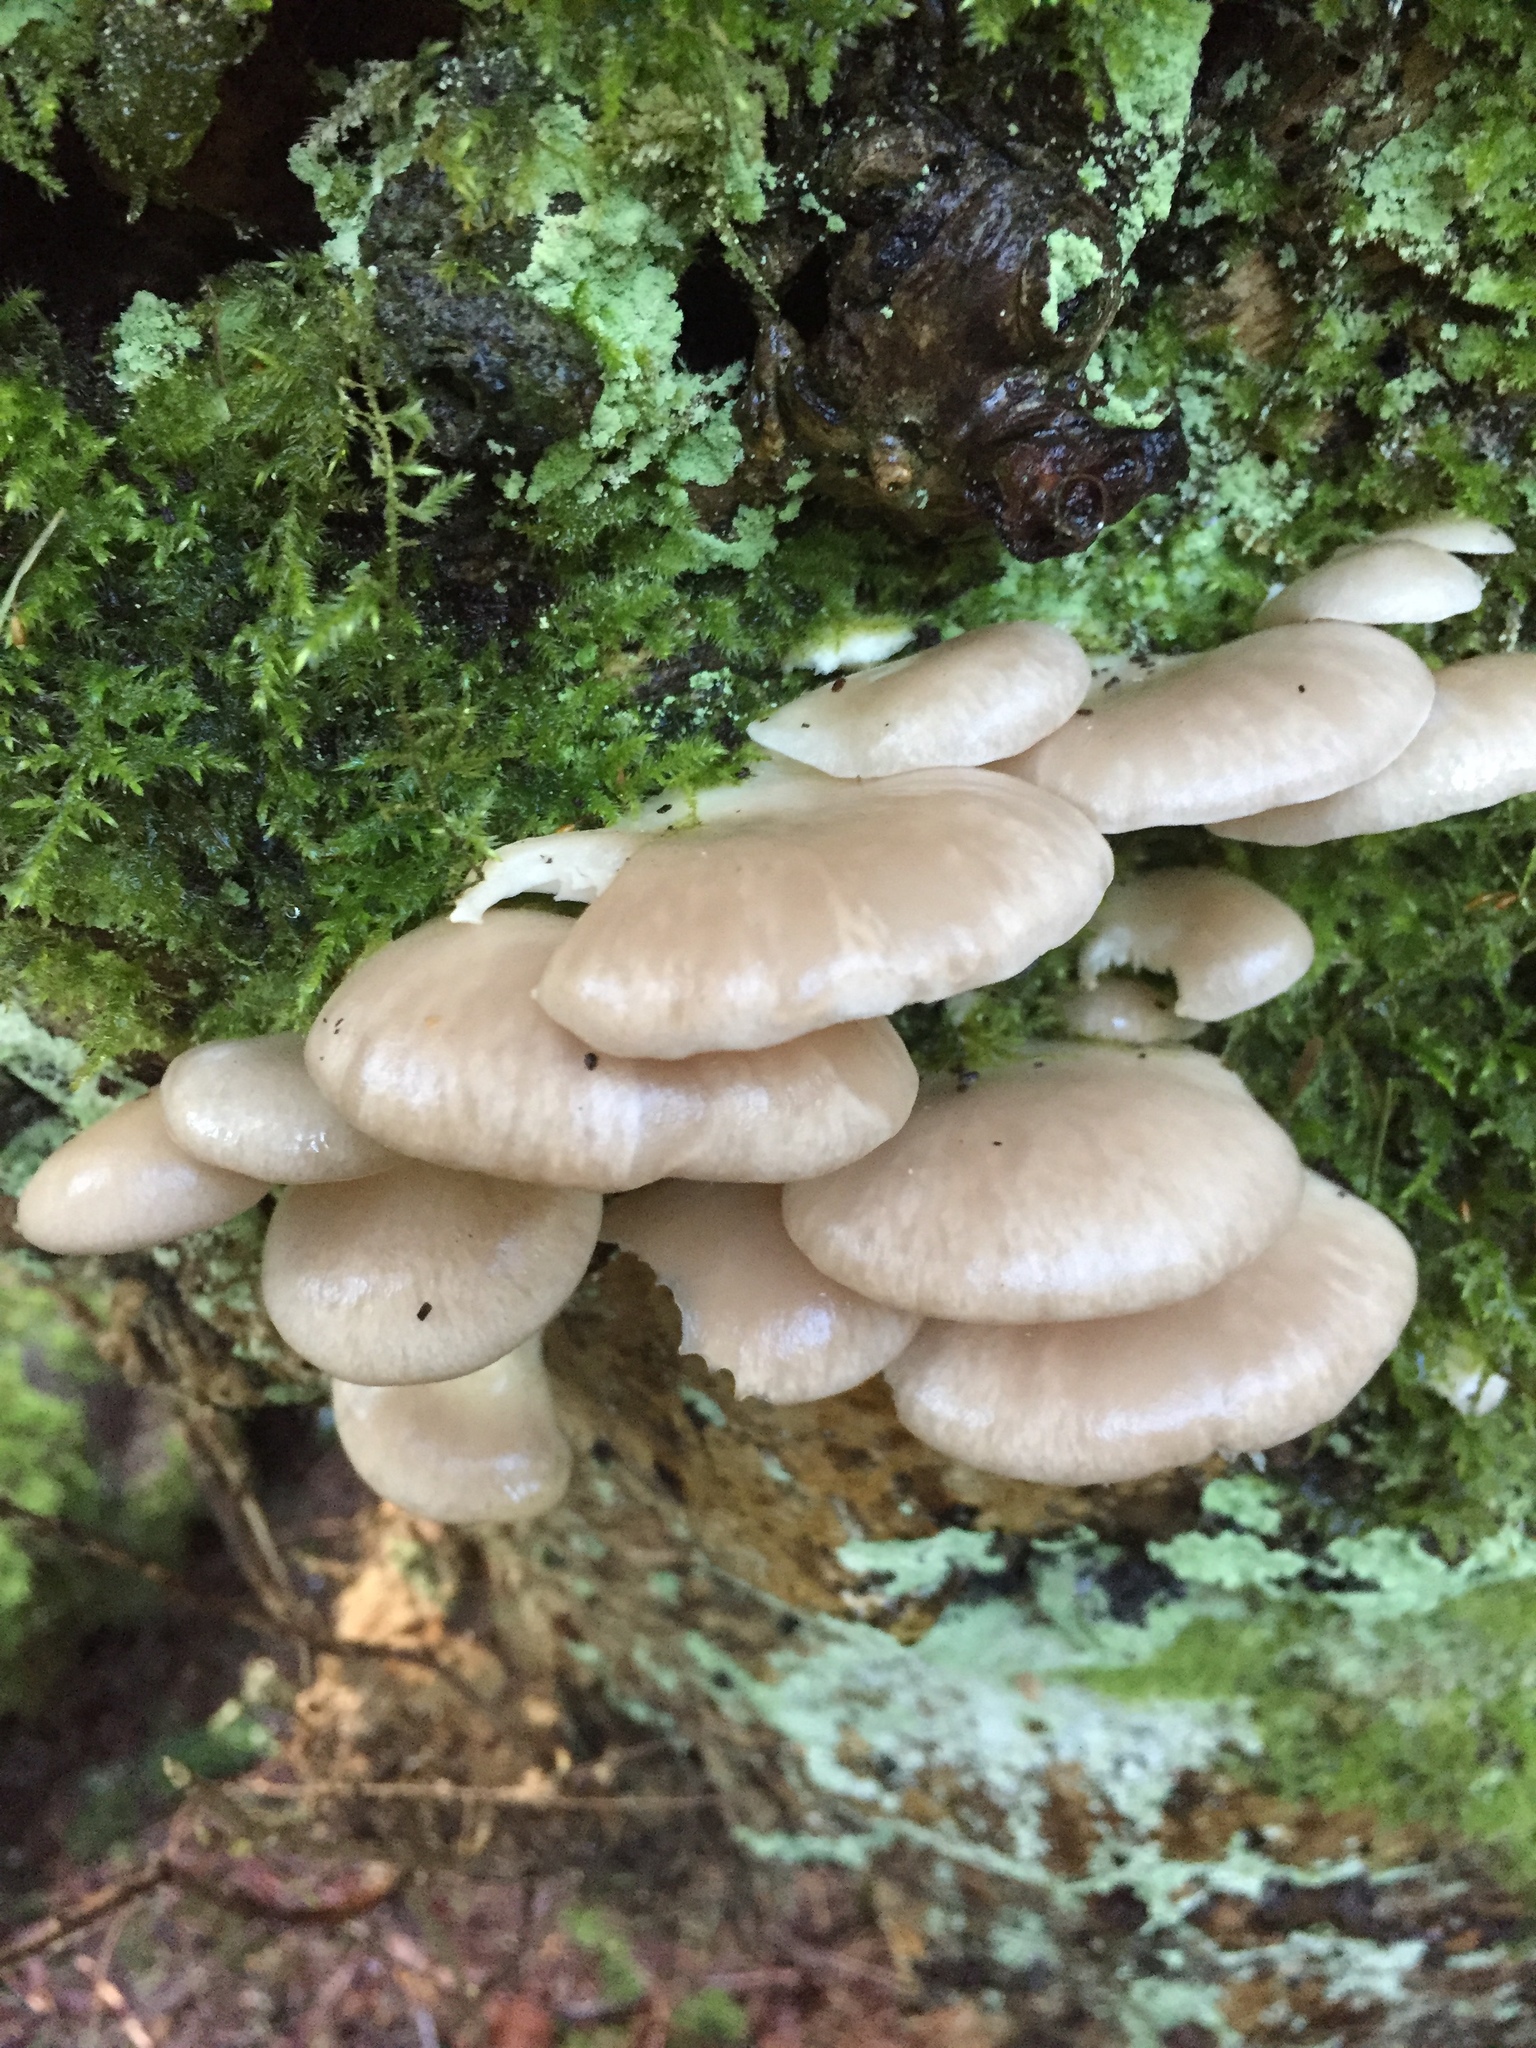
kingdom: Fungi
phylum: Basidiomycota
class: Agaricomycetes
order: Agaricales
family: Pleurotaceae
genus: Pleurotus
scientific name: Pleurotus ostreatus
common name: Oyster mushroom
